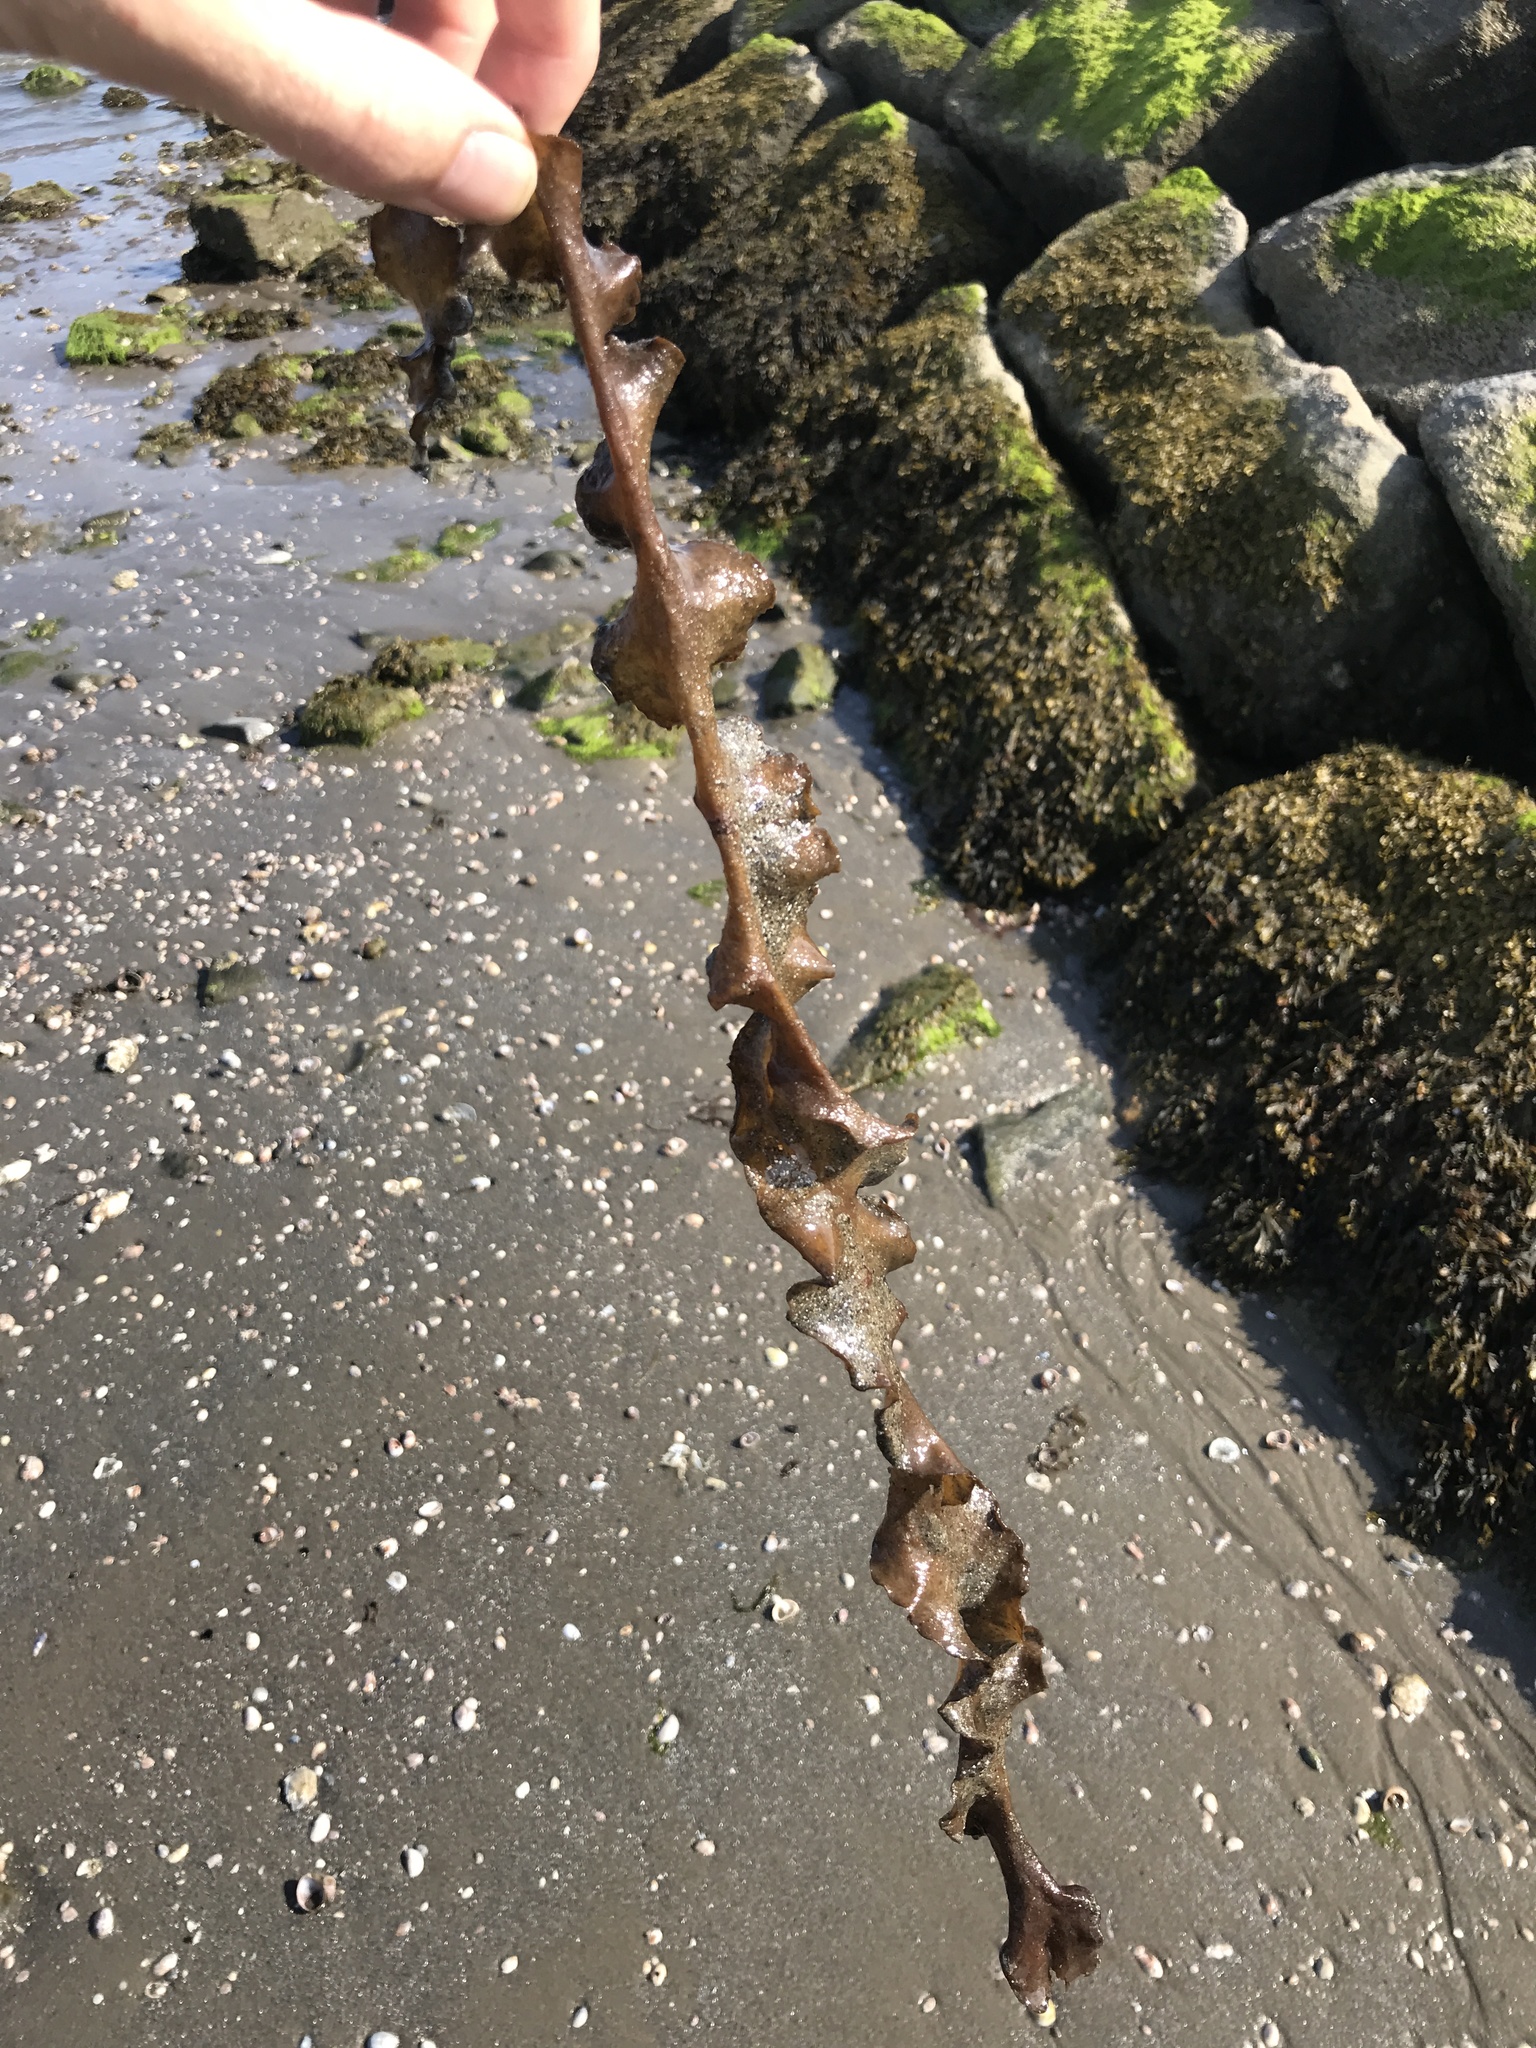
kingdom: Chromista
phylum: Ochrophyta
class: Phaeophyceae
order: Laminariales
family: Laminariaceae
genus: Saccharina
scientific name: Saccharina latissima
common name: Poor man's weather glass
